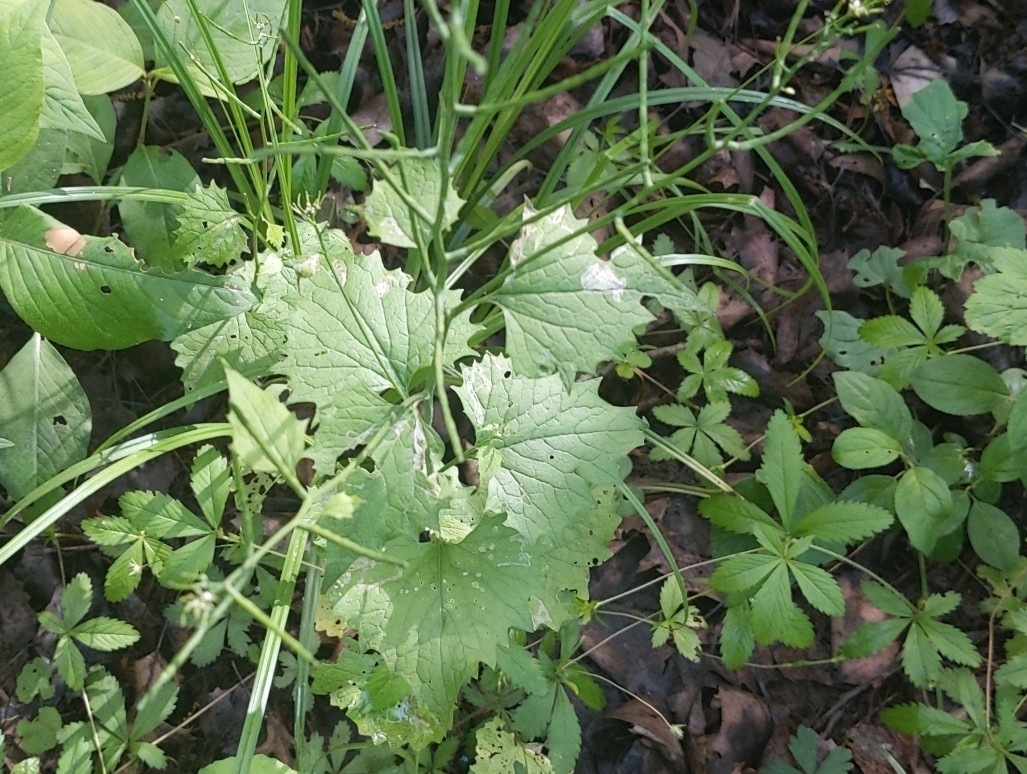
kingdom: Plantae
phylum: Tracheophyta
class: Magnoliopsida
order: Brassicales
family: Brassicaceae
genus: Alliaria
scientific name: Alliaria petiolata
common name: Garlic mustard
